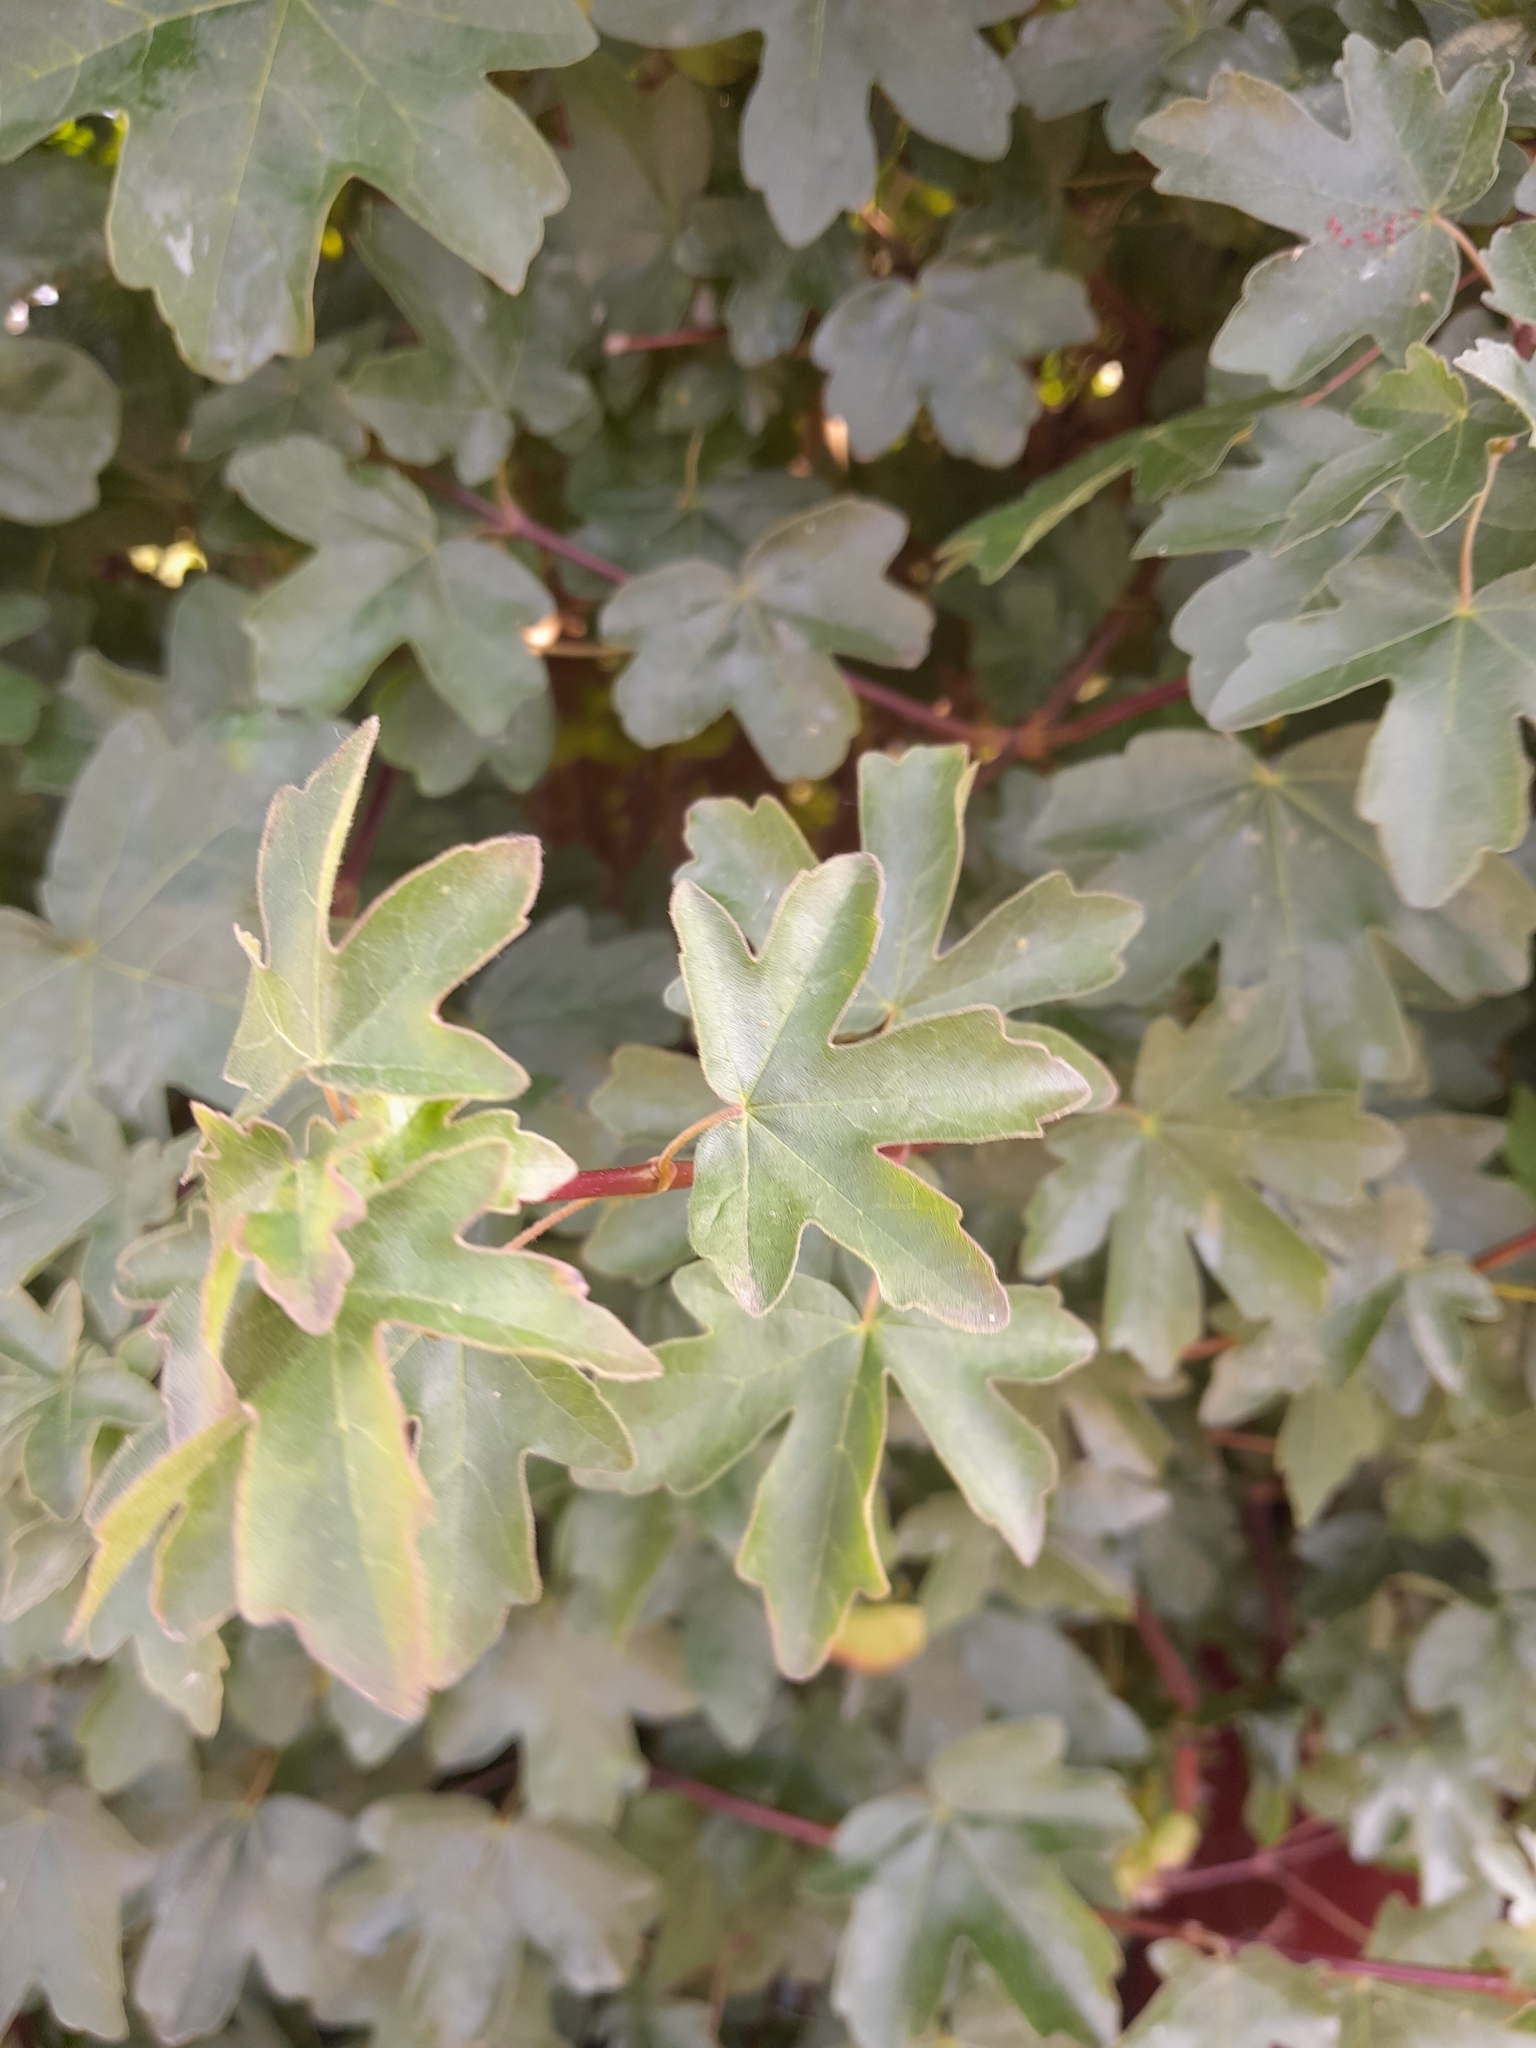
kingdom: Plantae
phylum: Tracheophyta
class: Magnoliopsida
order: Sapindales
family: Sapindaceae
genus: Acer
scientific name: Acer campestre
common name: Field maple
